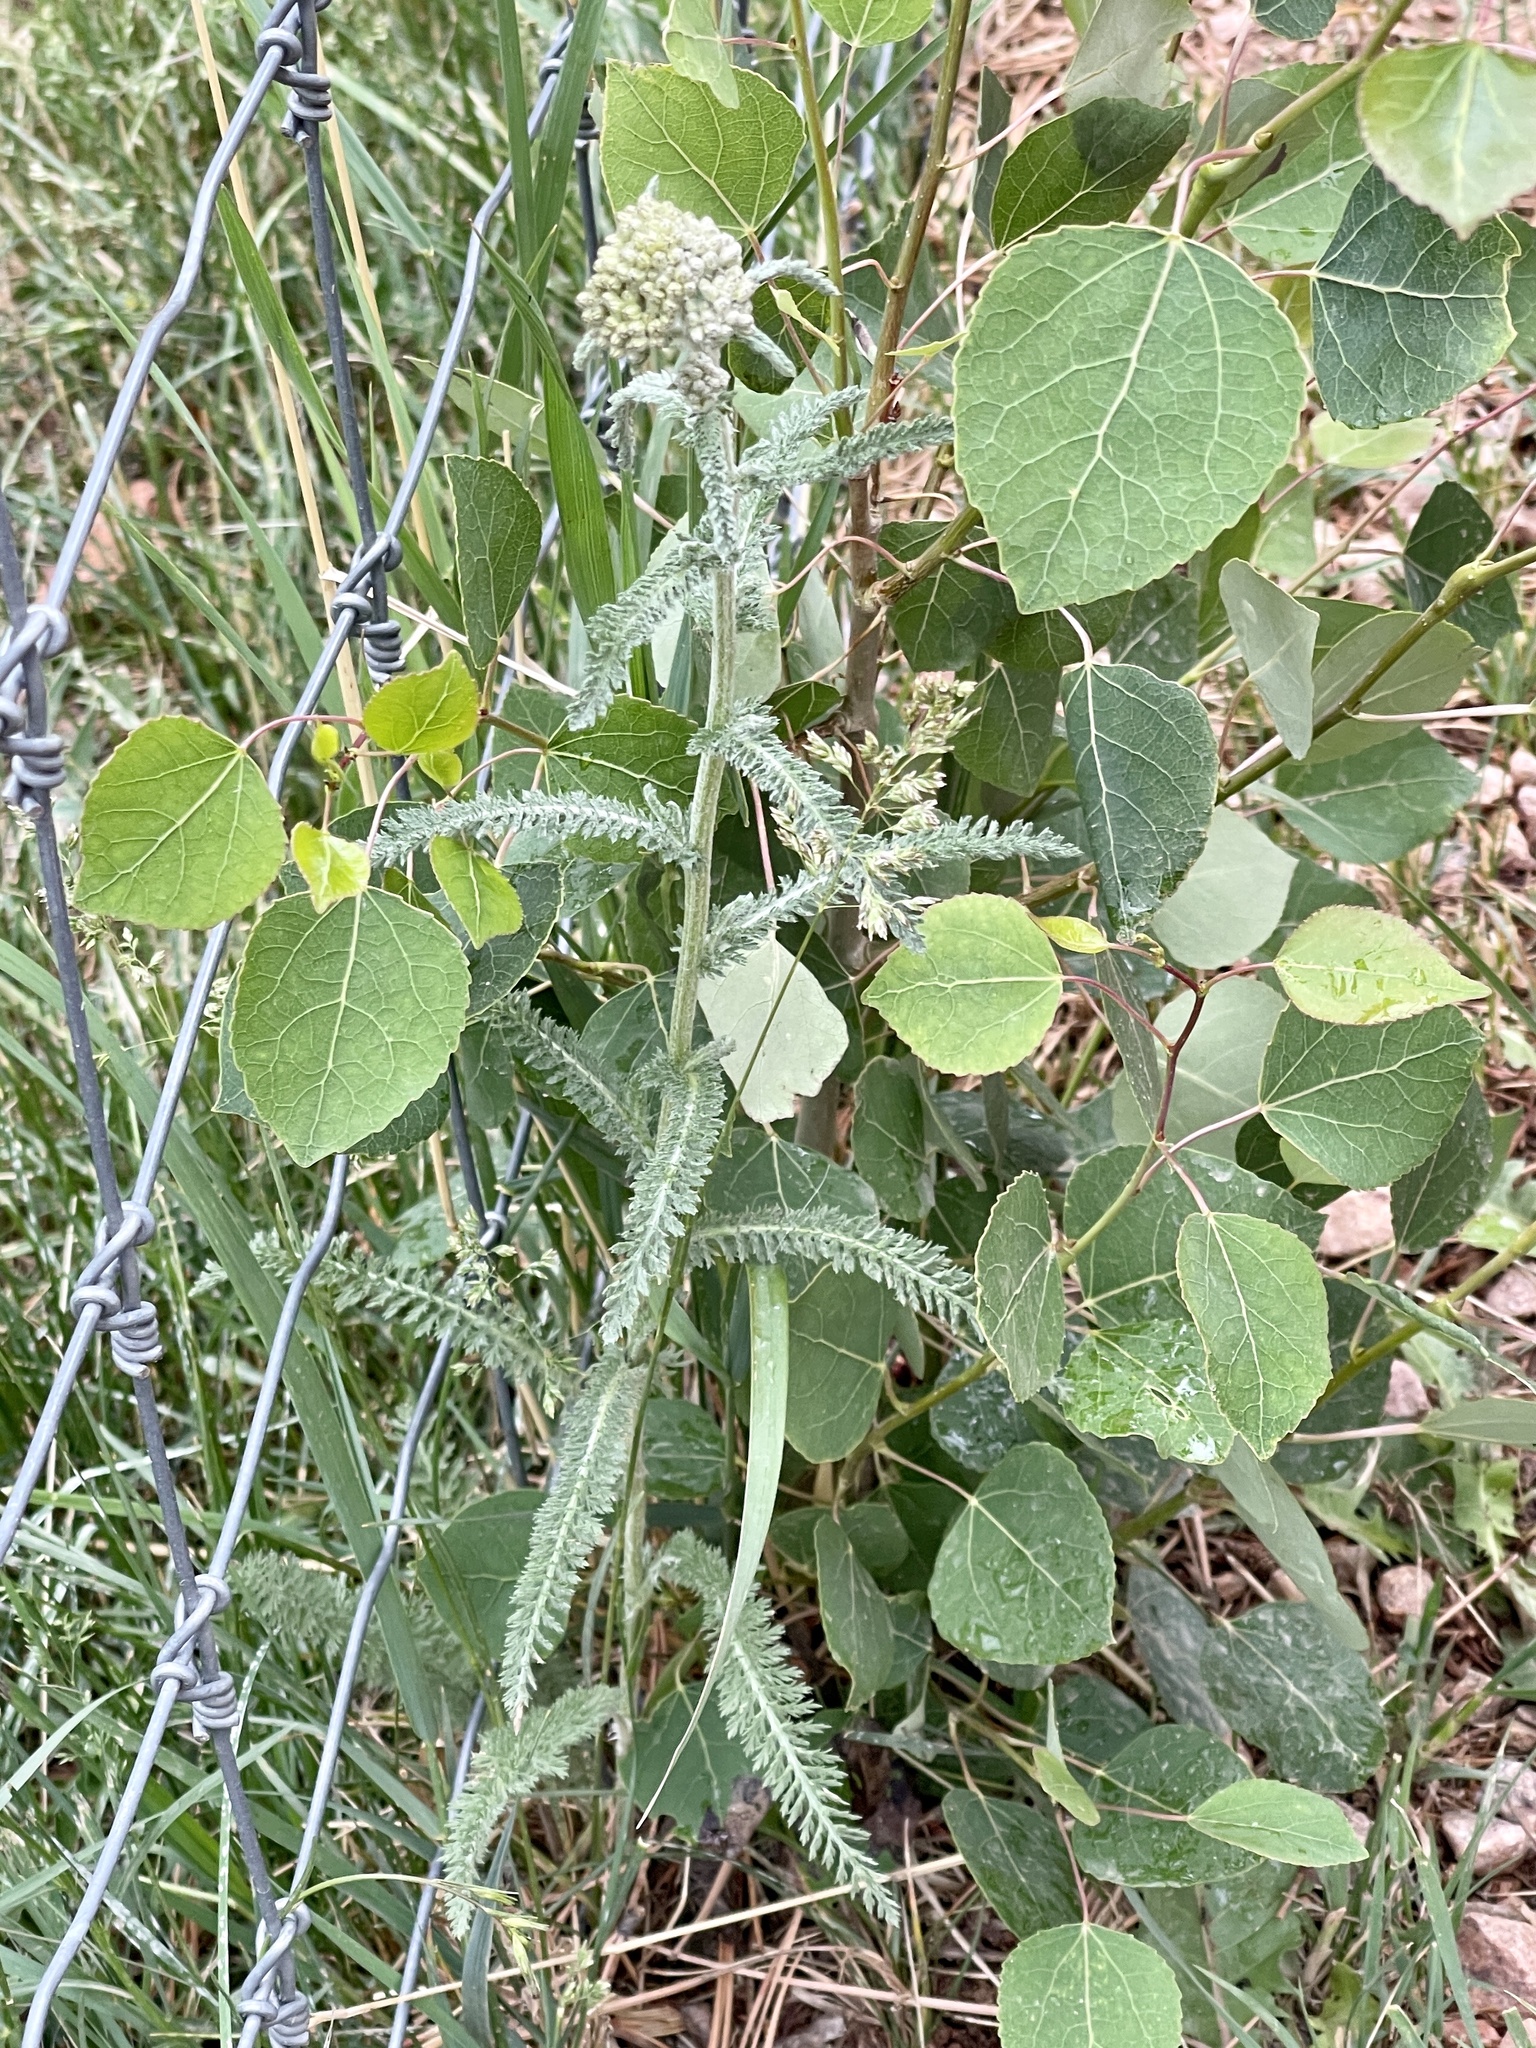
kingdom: Plantae
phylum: Tracheophyta
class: Magnoliopsida
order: Asterales
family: Asteraceae
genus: Achillea
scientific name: Achillea millefolium
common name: Yarrow
